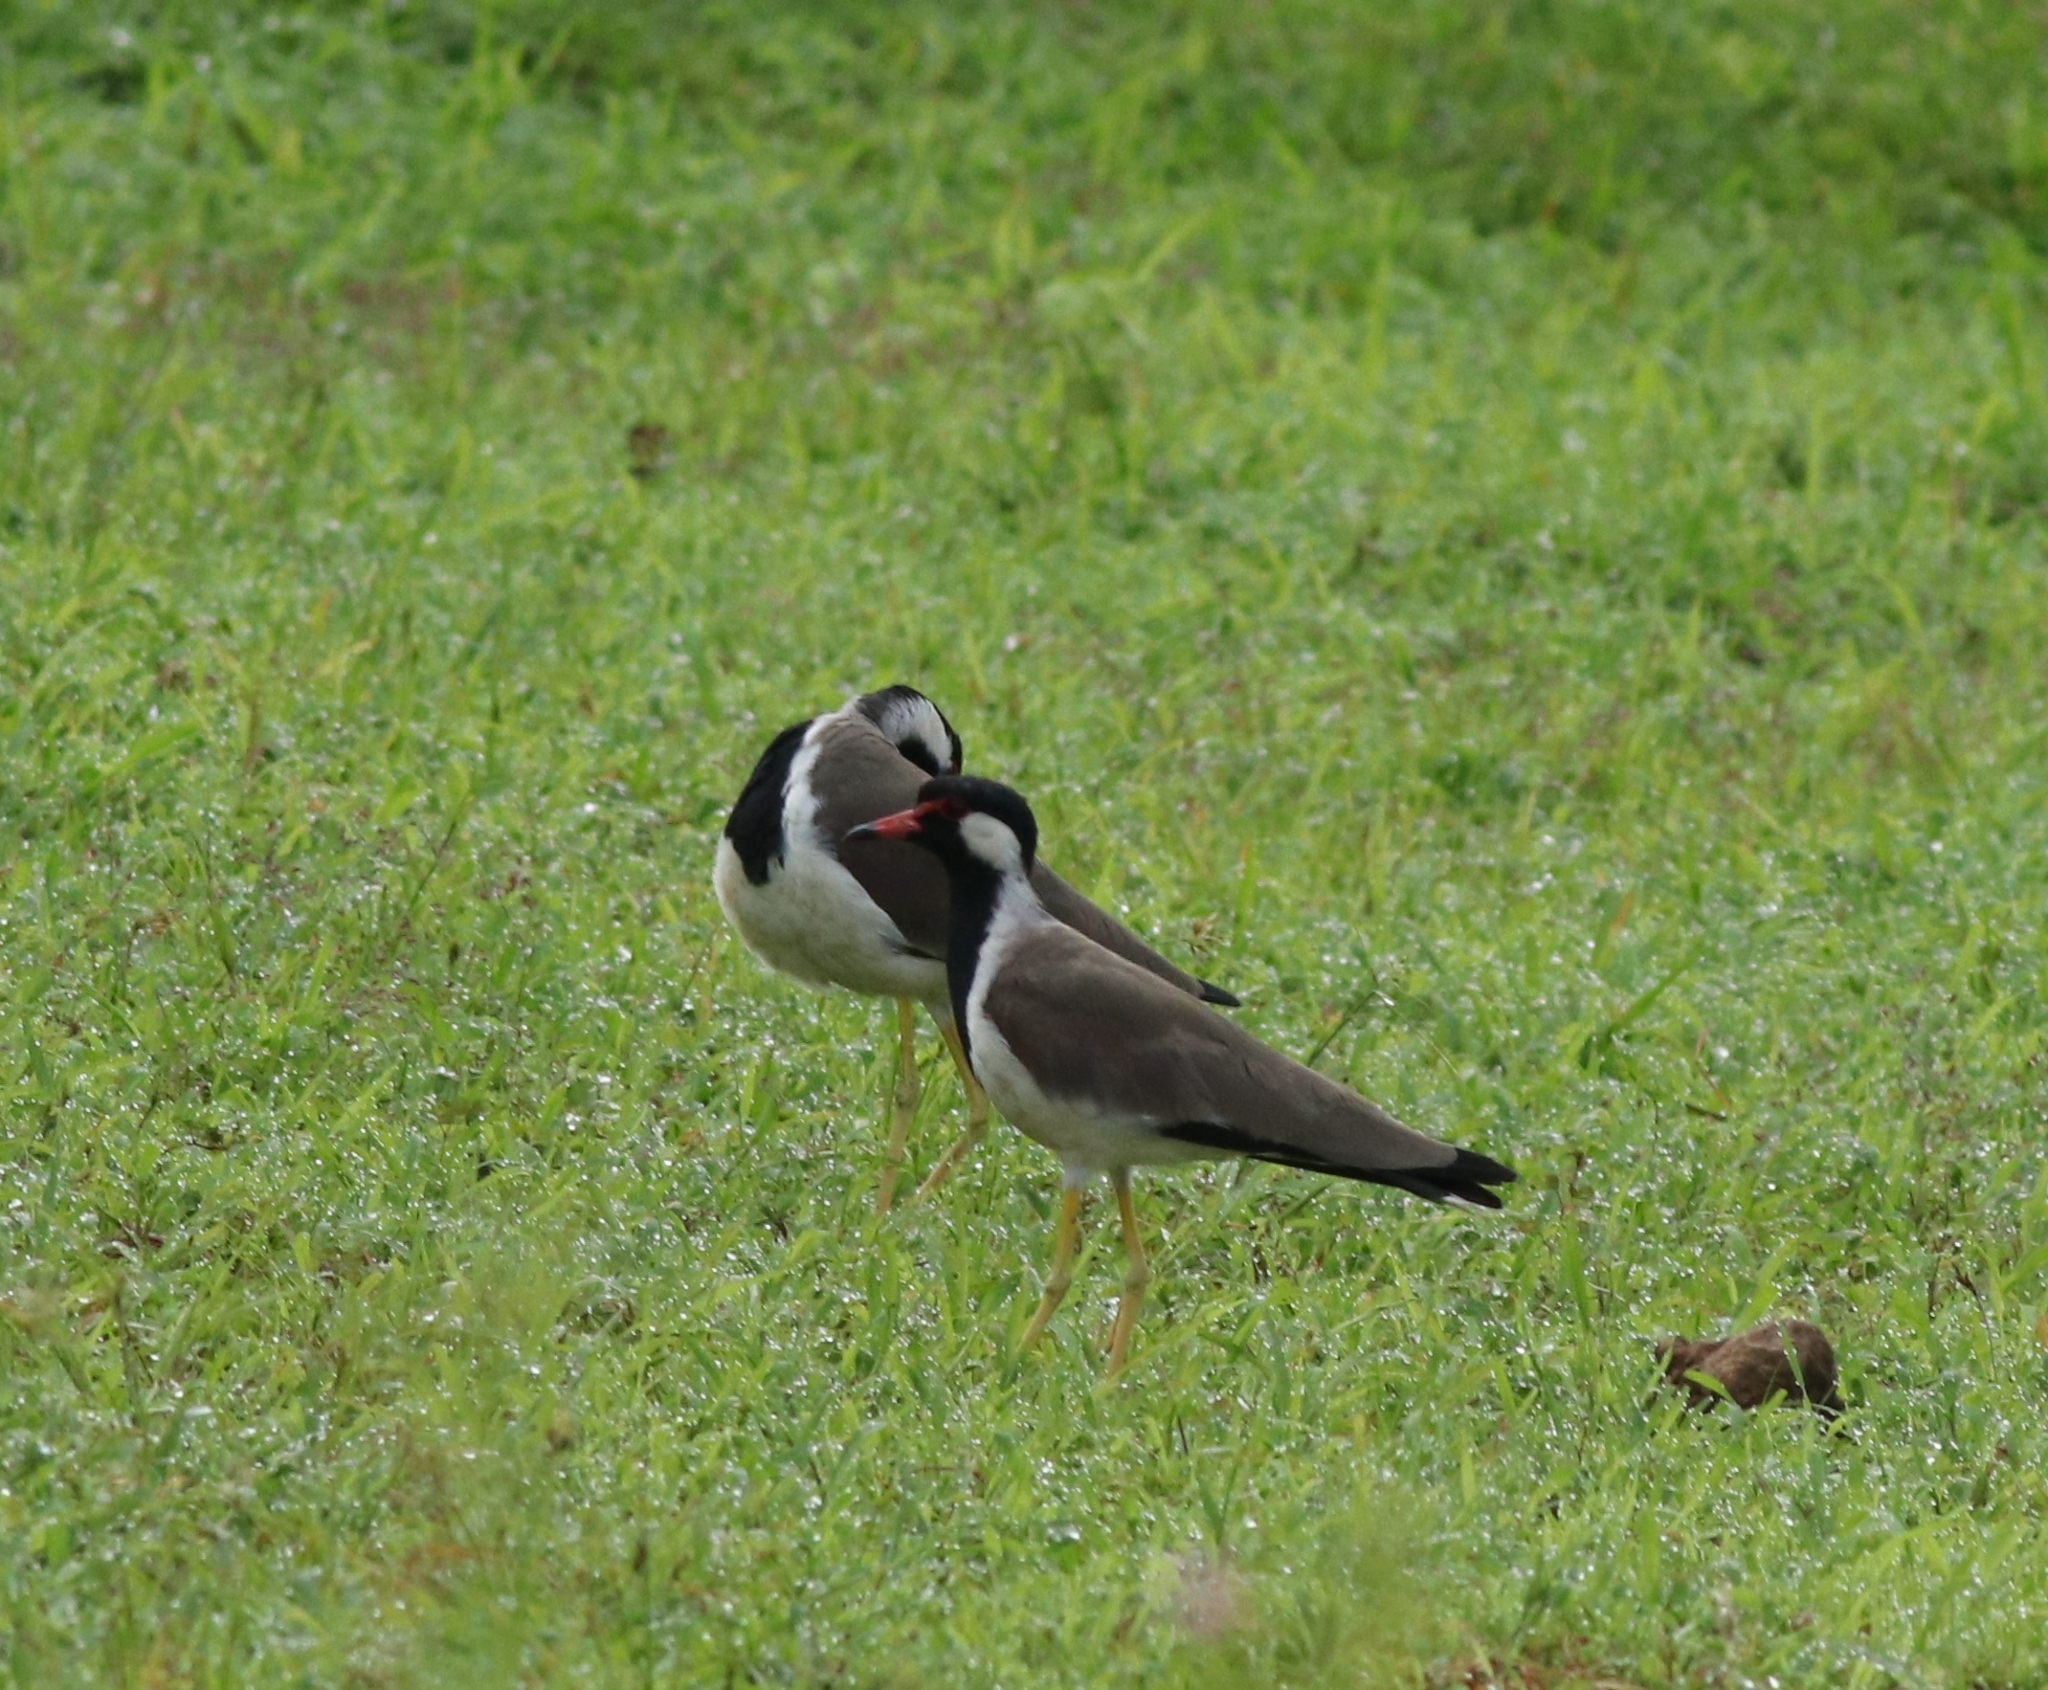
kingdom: Animalia
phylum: Chordata
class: Aves
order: Charadriiformes
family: Charadriidae
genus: Vanellus
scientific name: Vanellus indicus
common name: Red-wattled lapwing
